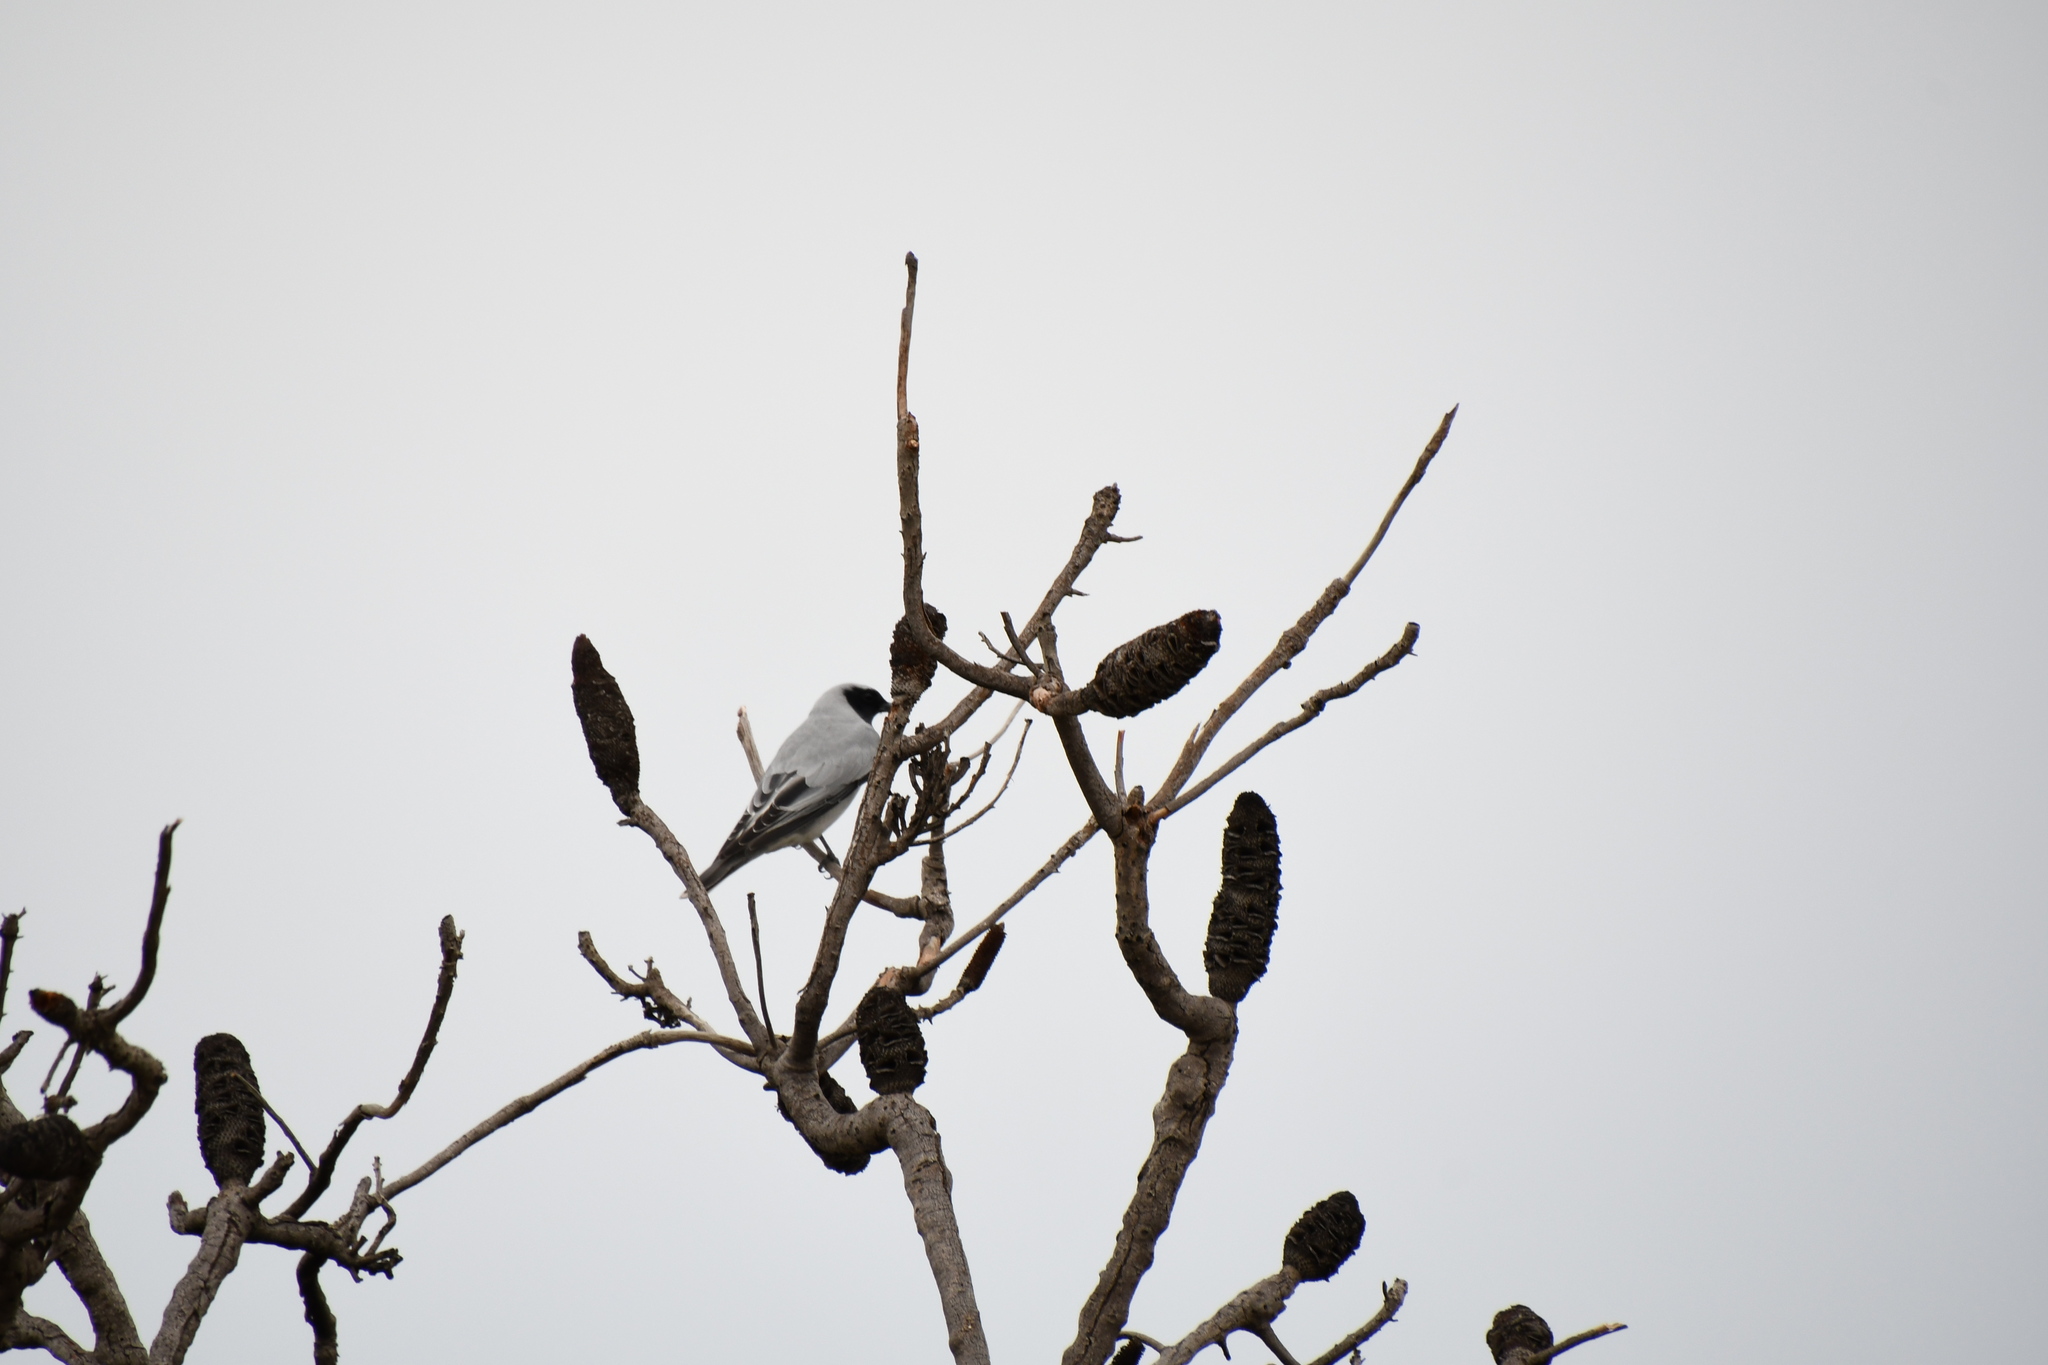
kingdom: Animalia
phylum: Chordata
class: Aves
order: Passeriformes
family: Campephagidae
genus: Coracina
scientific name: Coracina novaehollandiae
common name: Black-faced cuckooshrike
